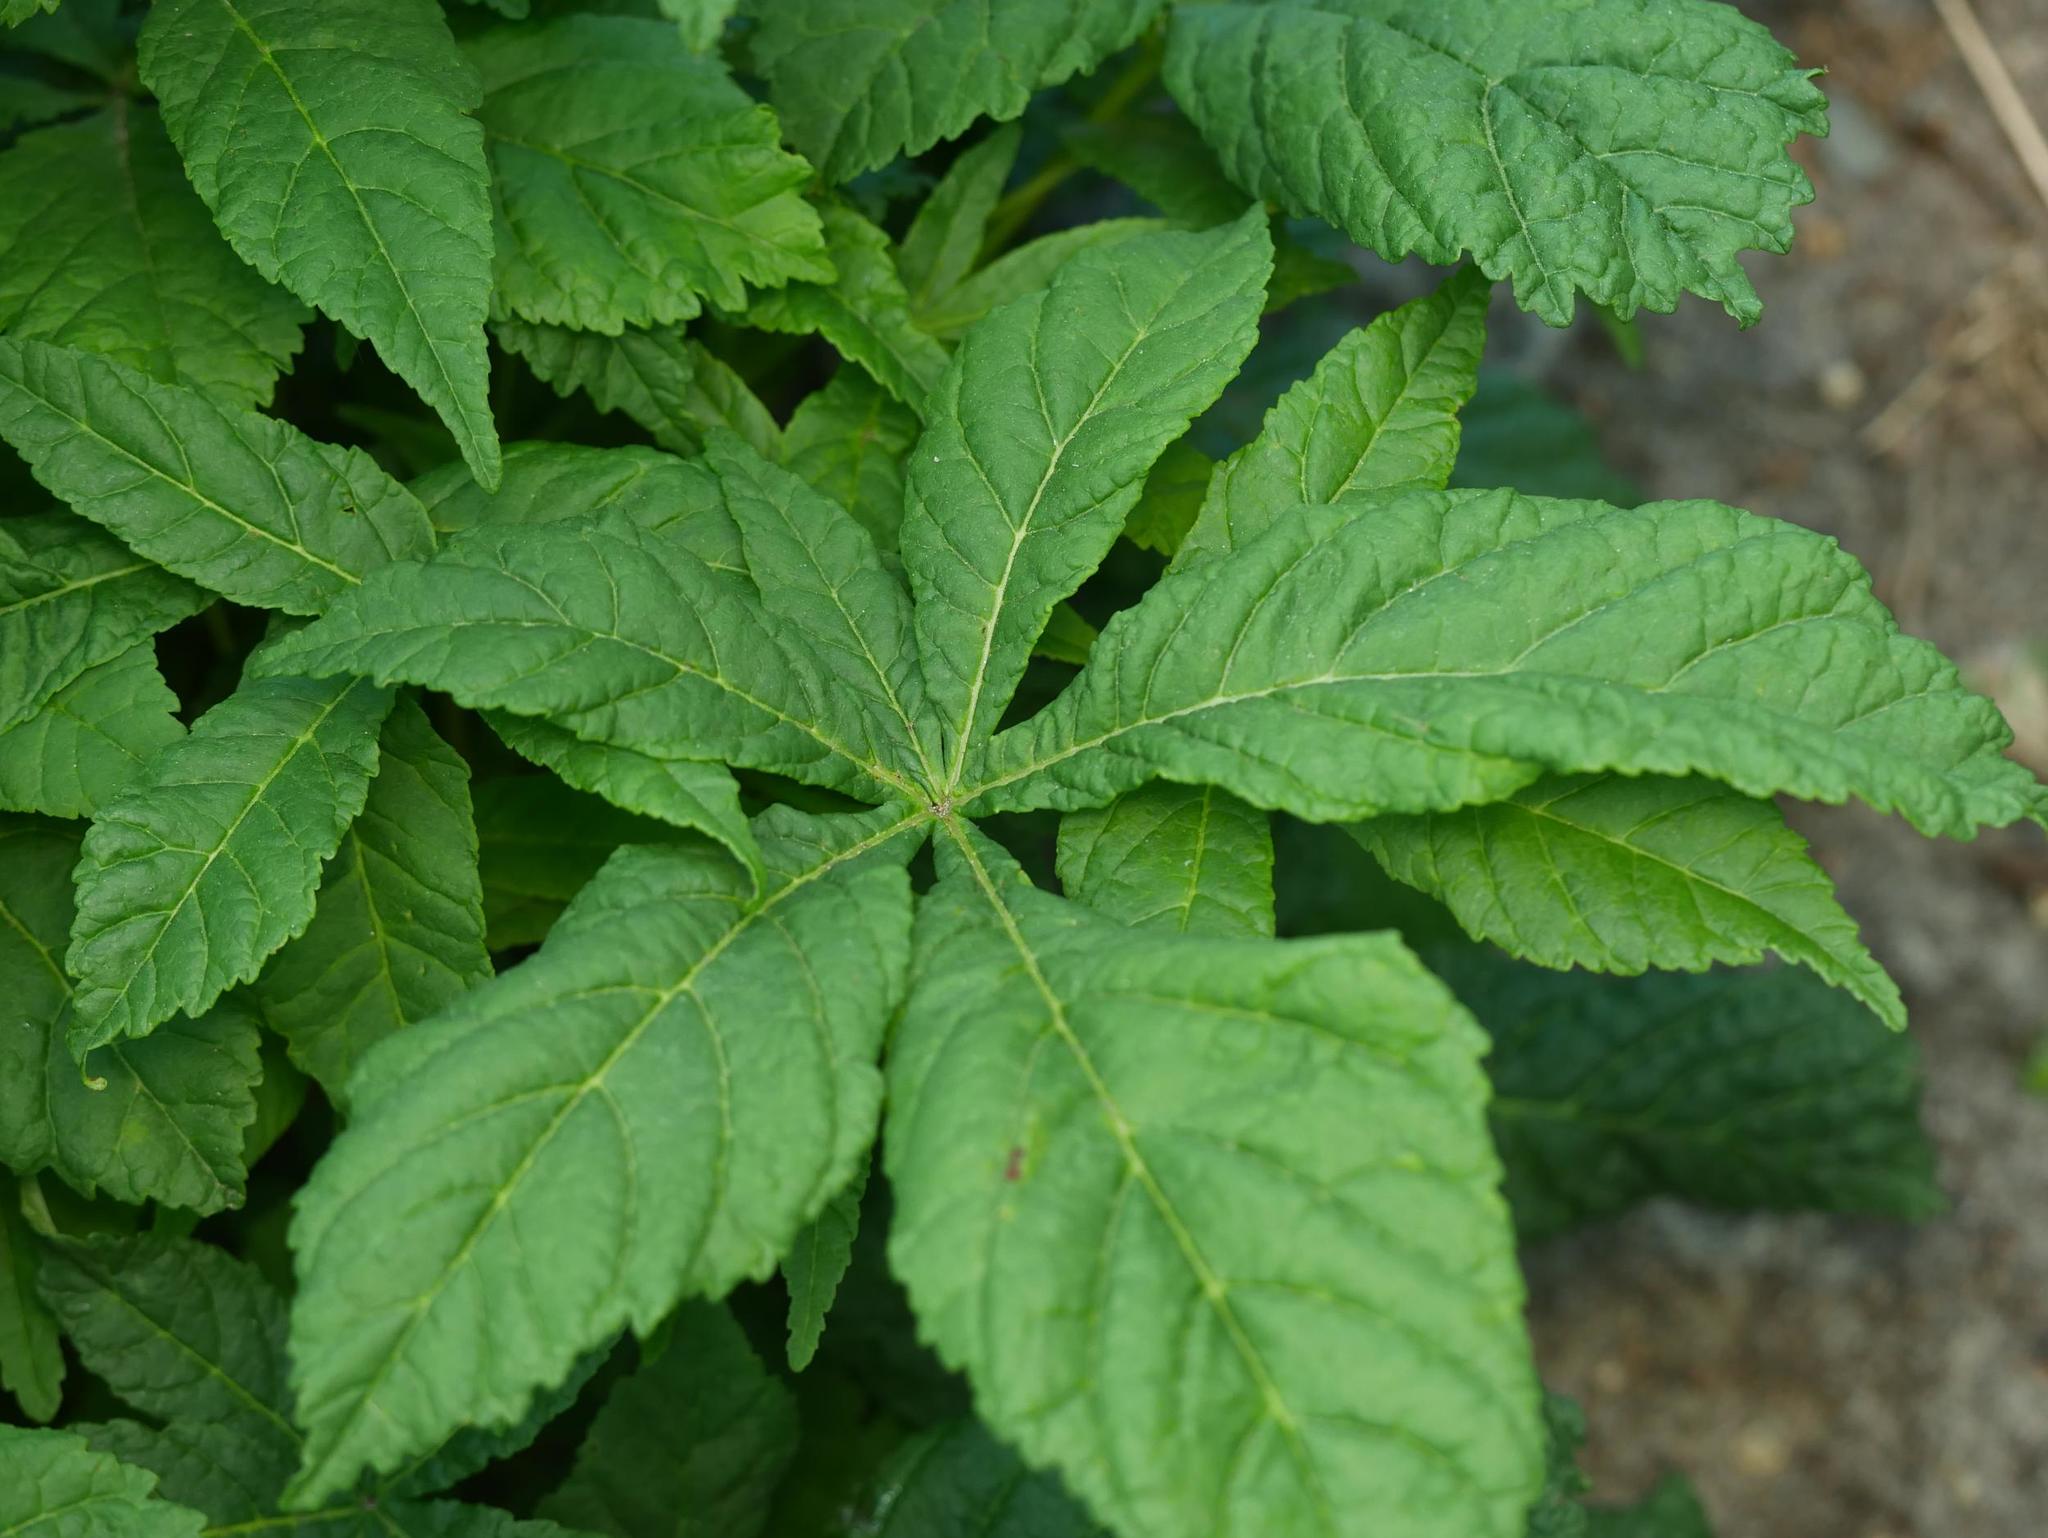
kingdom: Plantae
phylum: Tracheophyta
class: Magnoliopsida
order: Sapindales
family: Sapindaceae
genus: Aesculus
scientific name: Aesculus hippocastanum
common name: Horse-chestnut
